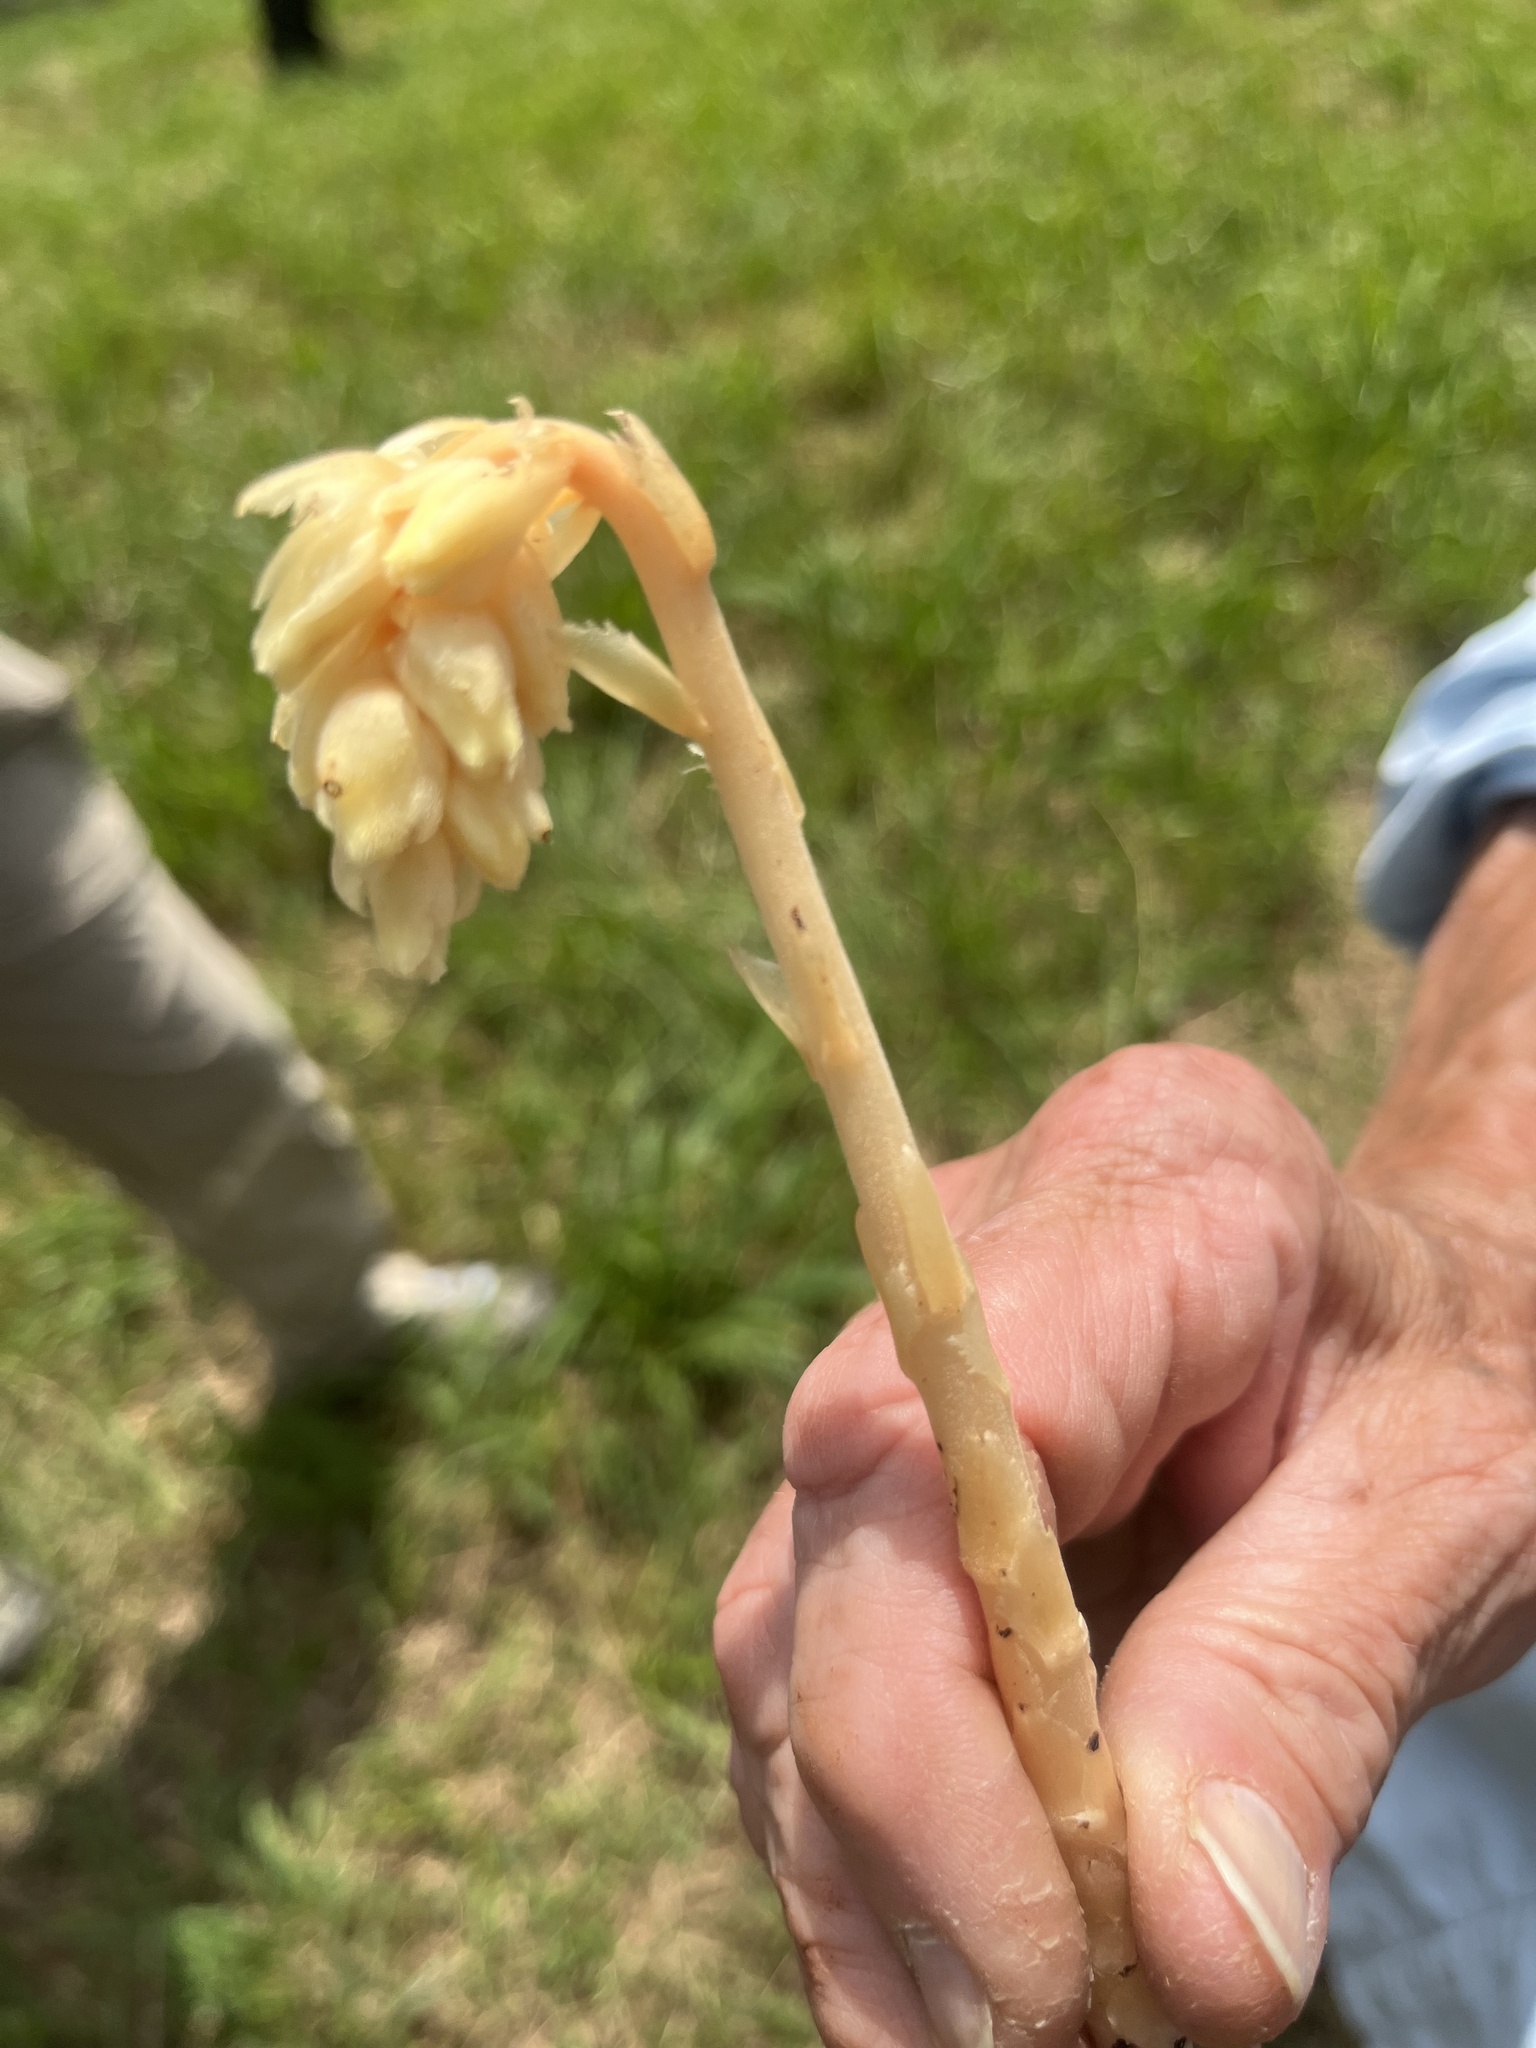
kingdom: Plantae
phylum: Tracheophyta
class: Magnoliopsida
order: Ericales
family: Ericaceae
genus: Hypopitys
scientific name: Hypopitys monotropa
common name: Yellow bird's-nest
